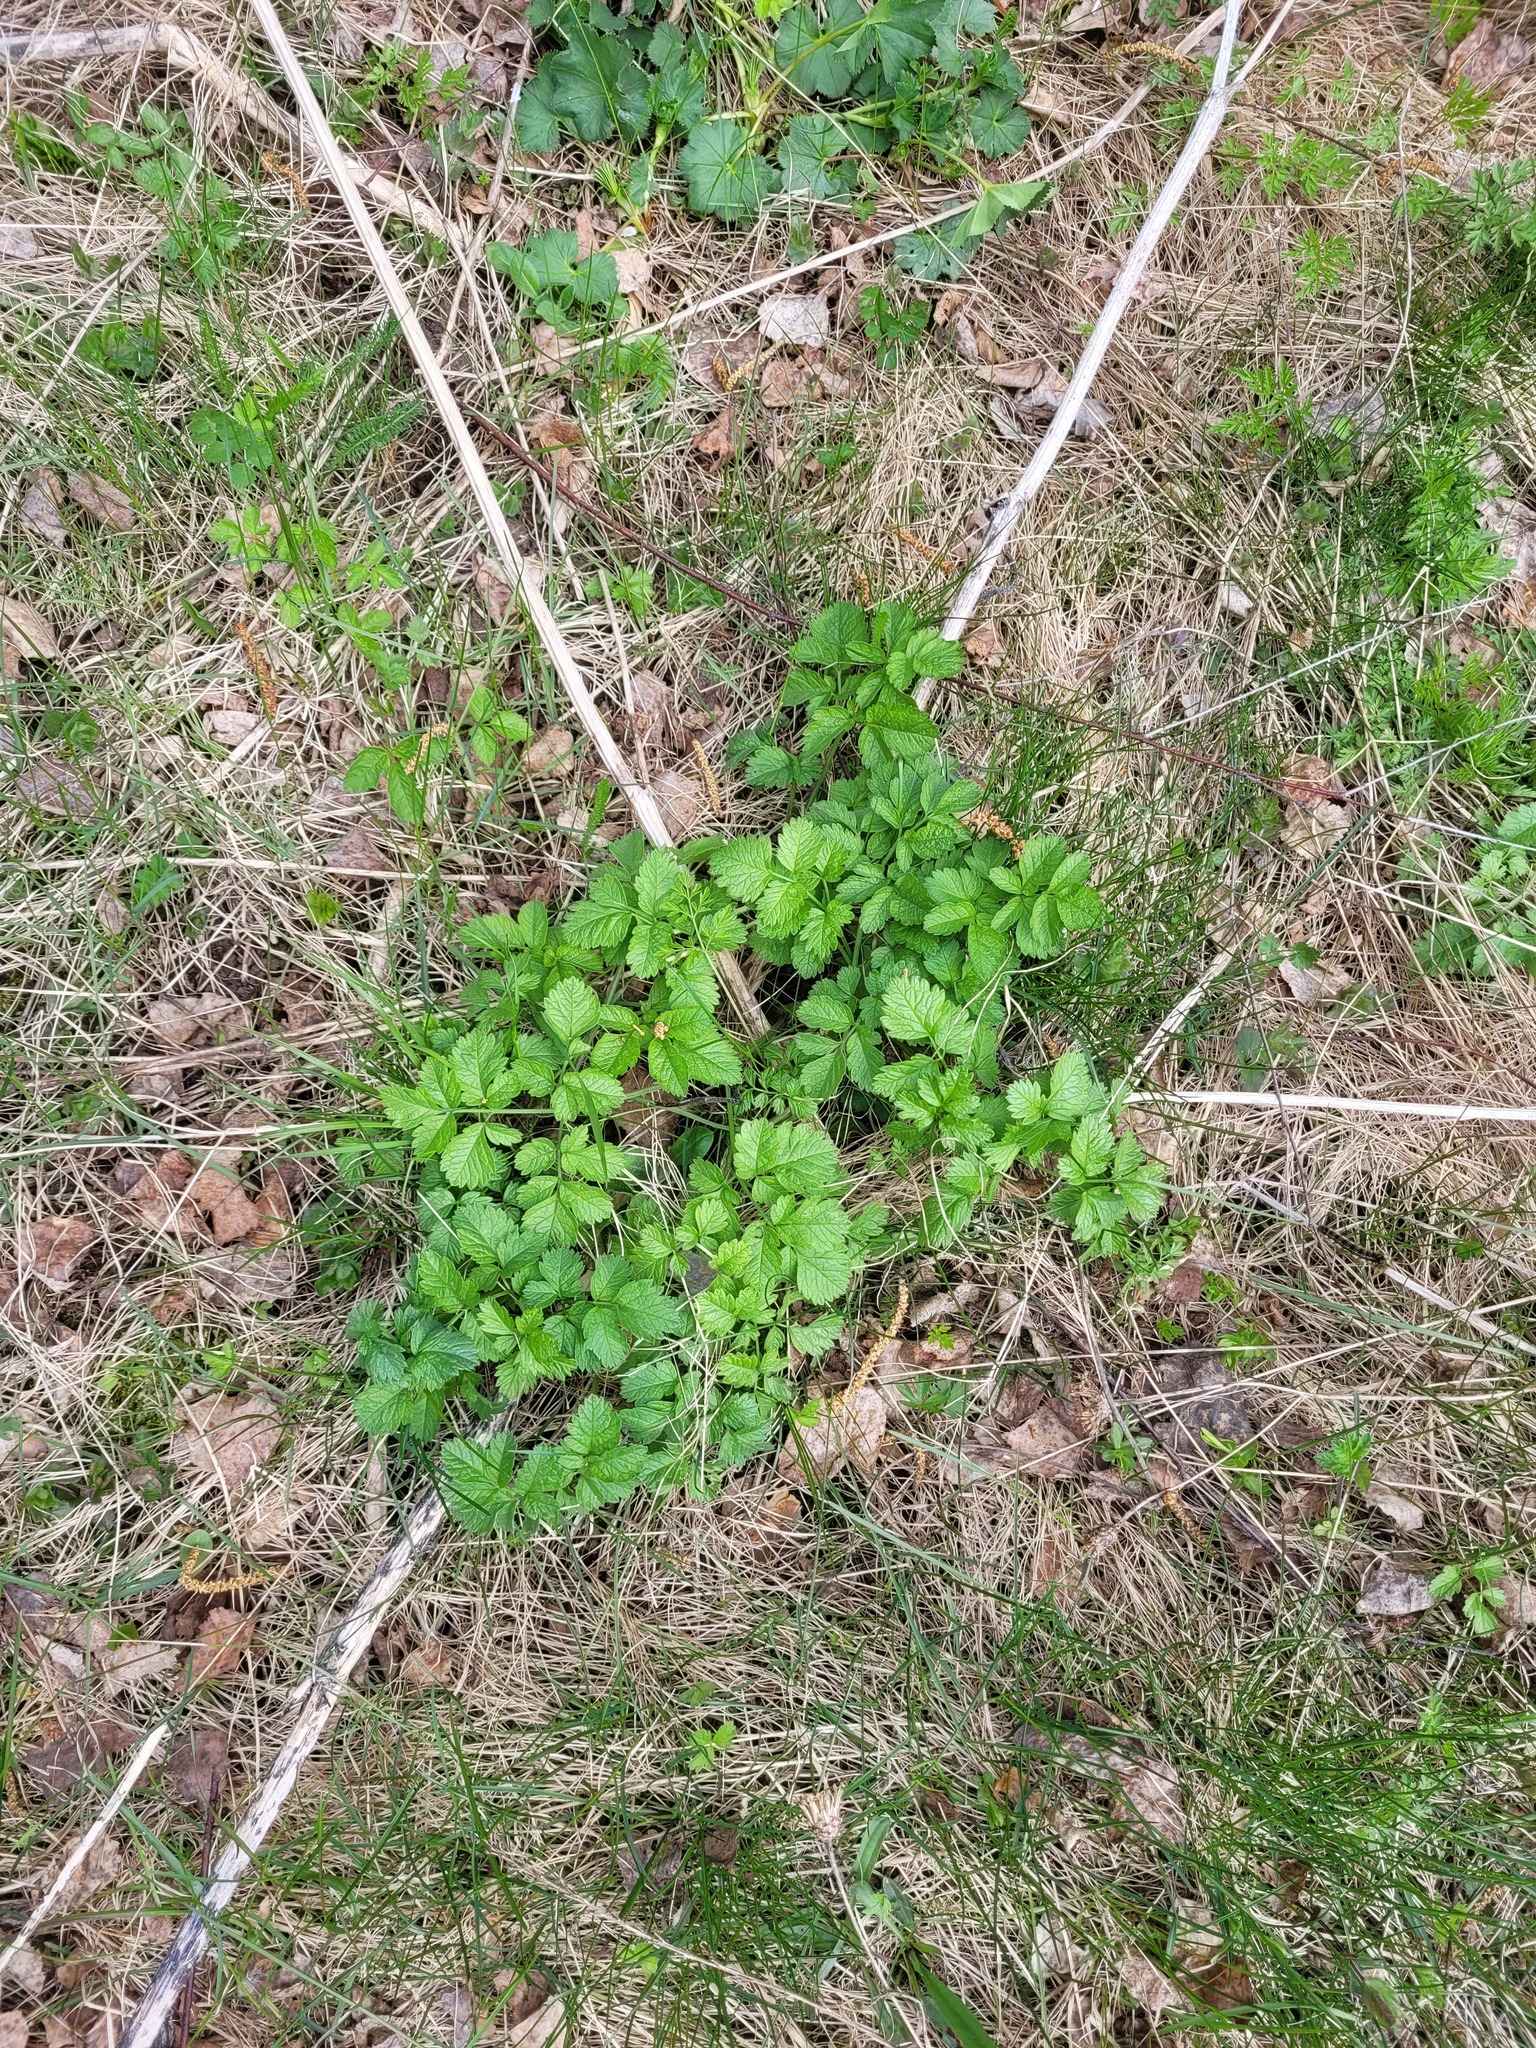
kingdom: Plantae
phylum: Tracheophyta
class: Magnoliopsida
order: Apiales
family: Apiaceae
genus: Chaerophyllum
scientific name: Chaerophyllum aromaticum
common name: Broadleaf chervil
